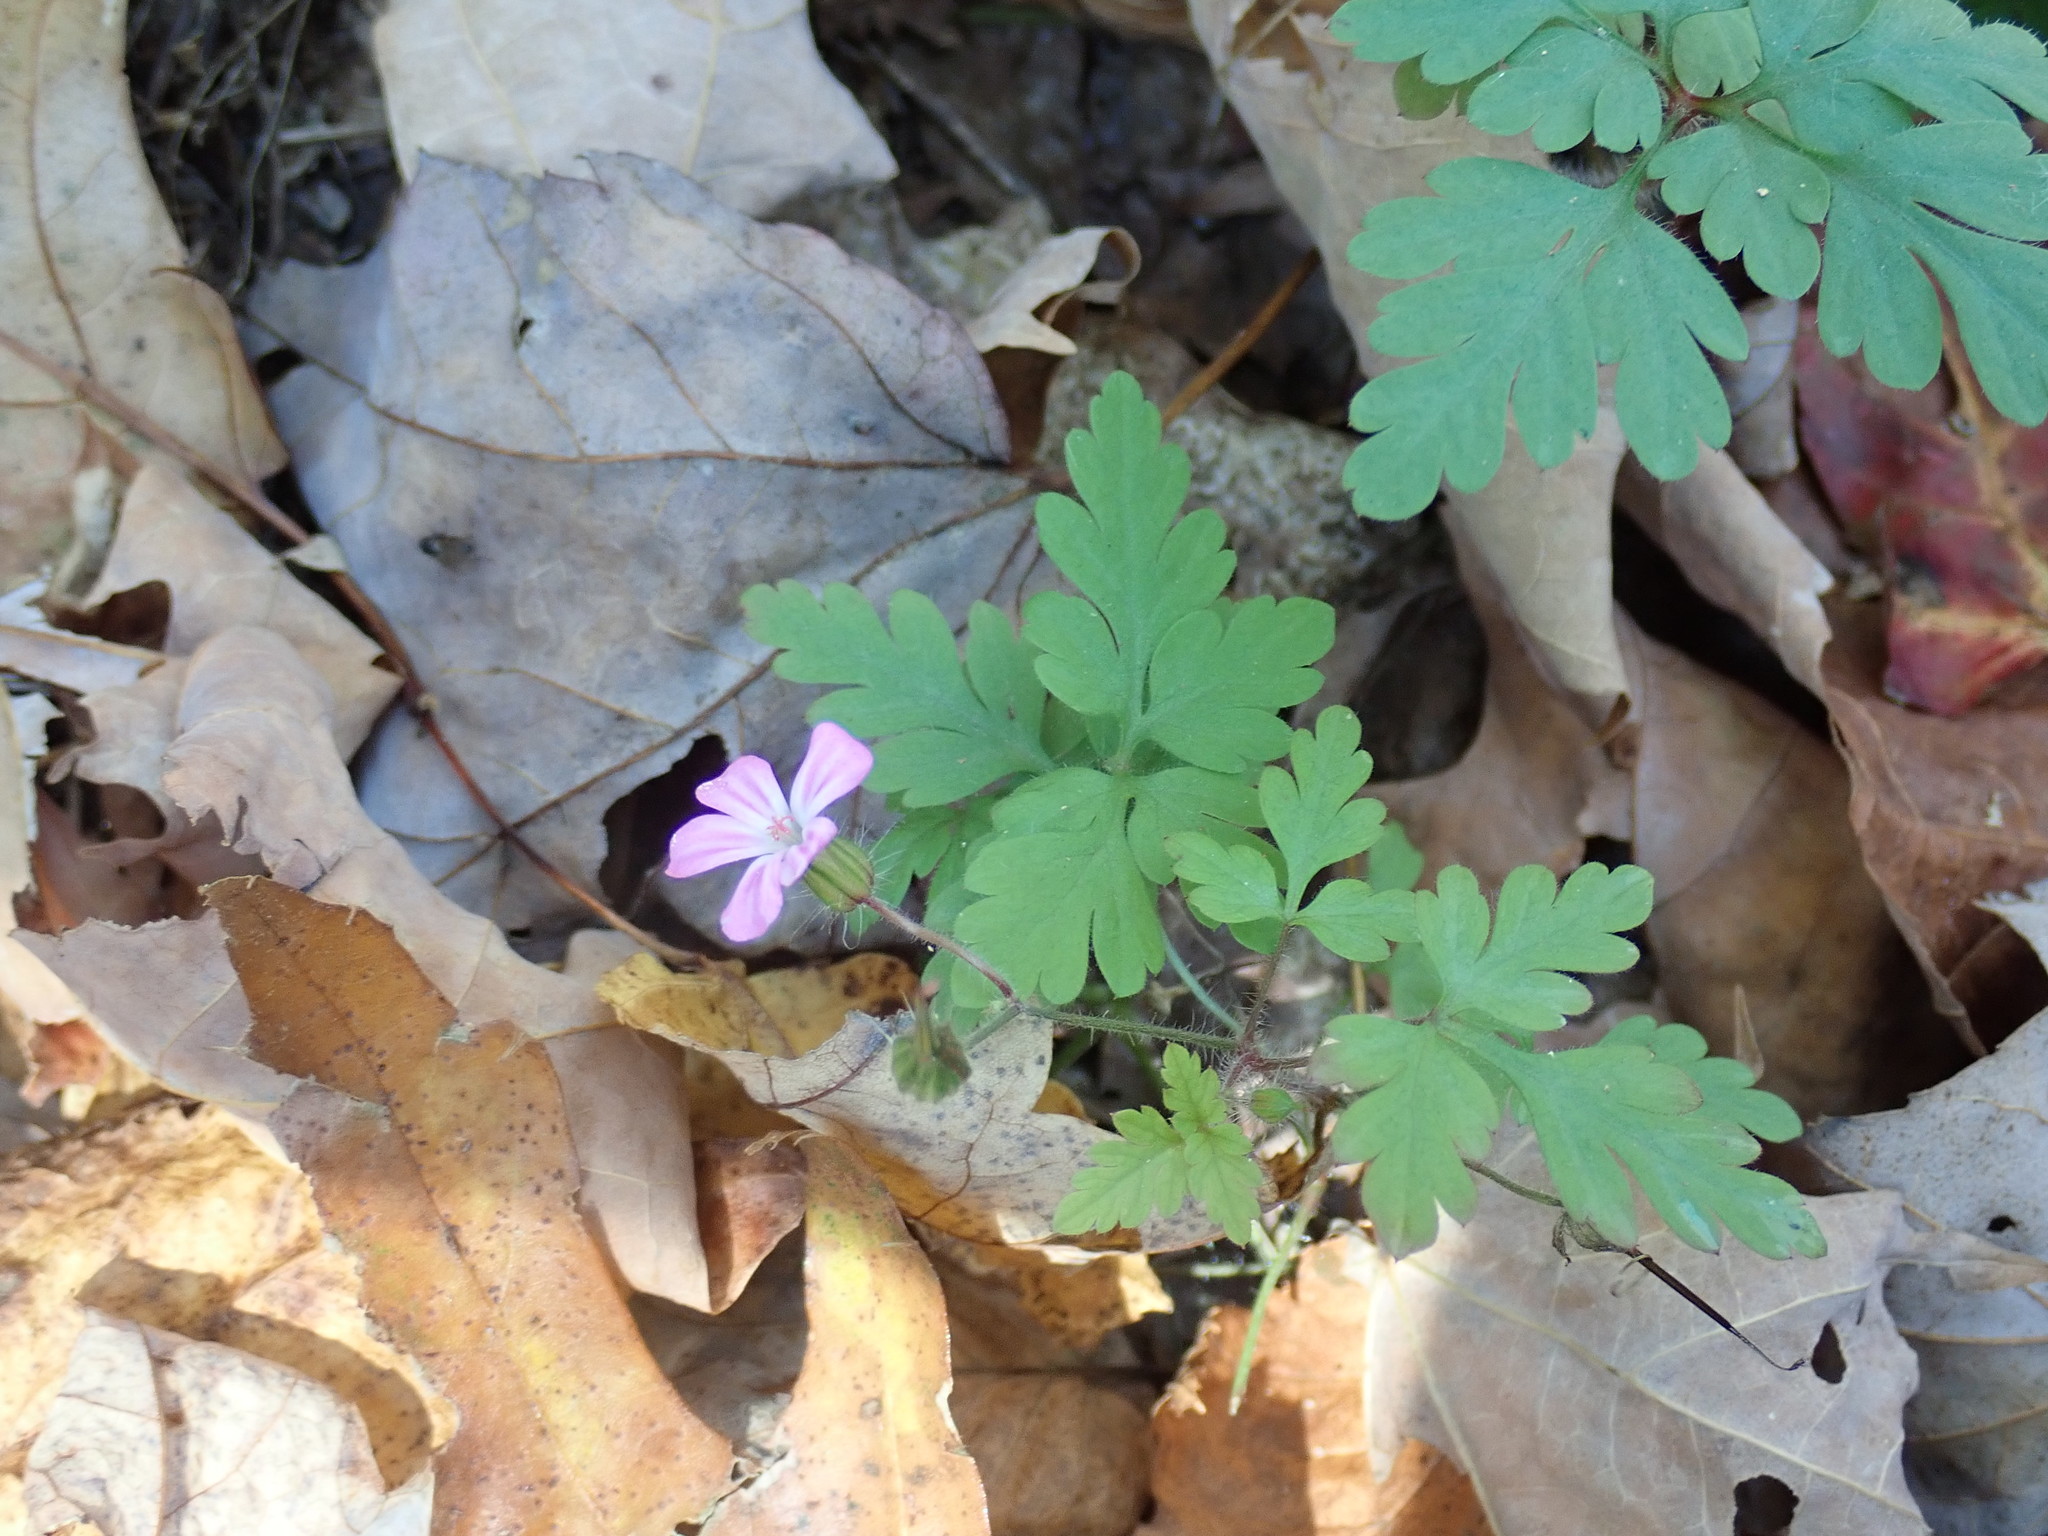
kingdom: Plantae
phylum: Tracheophyta
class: Magnoliopsida
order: Geraniales
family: Geraniaceae
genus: Geranium
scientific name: Geranium robertianum
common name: Herb-robert
